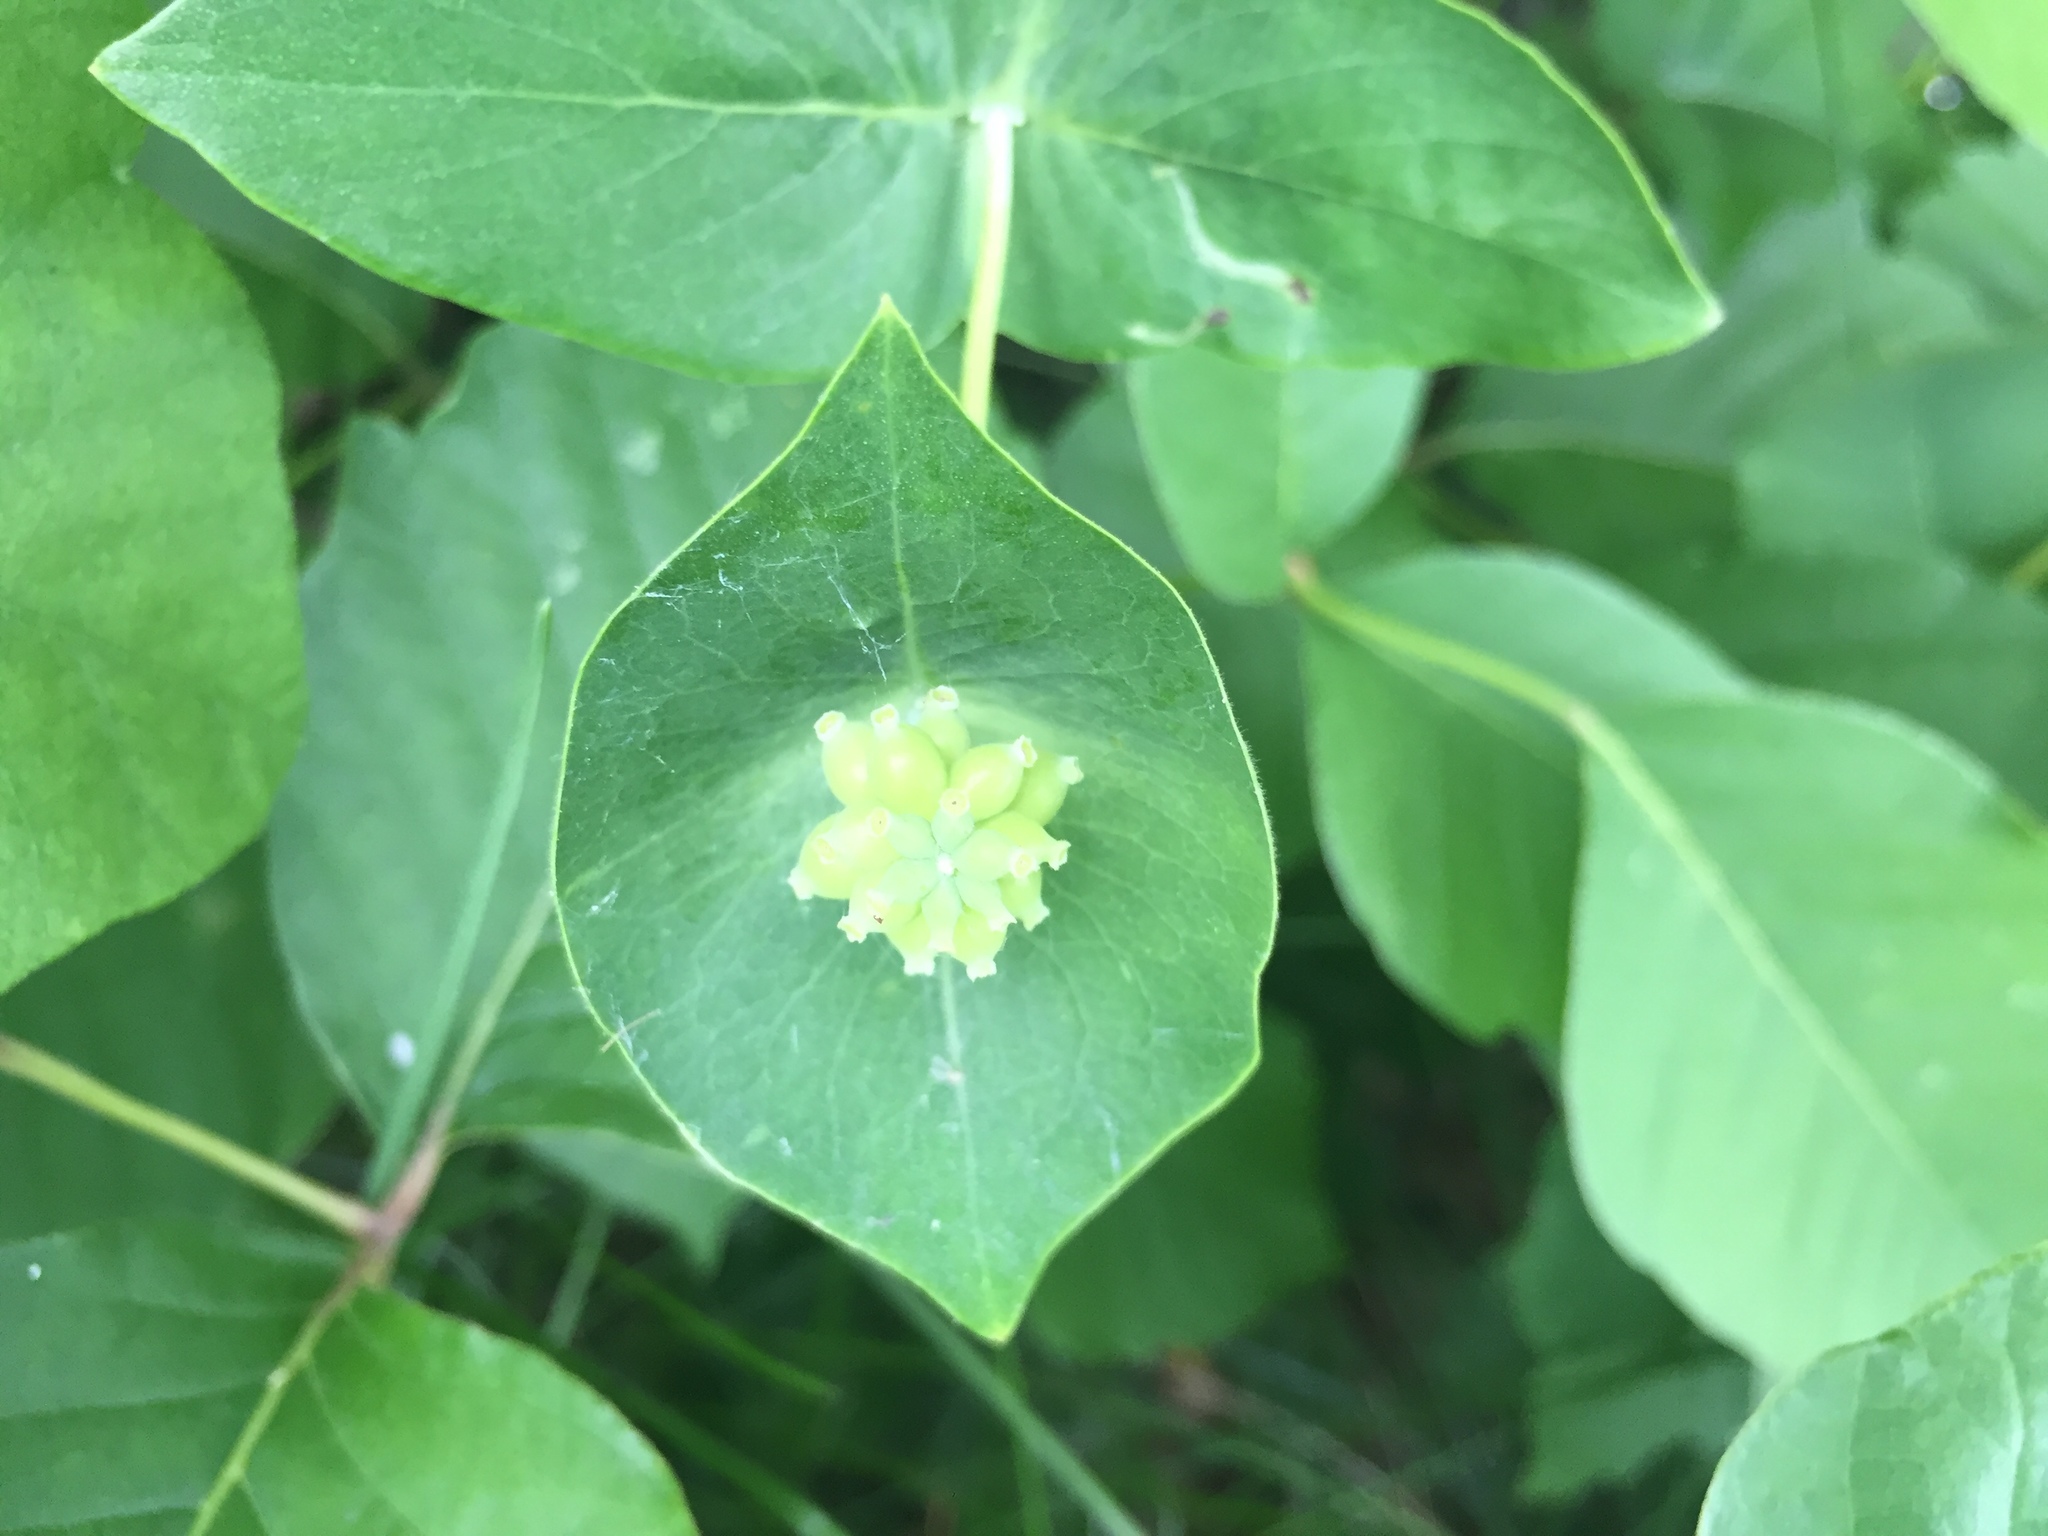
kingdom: Plantae
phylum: Tracheophyta
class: Magnoliopsida
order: Dipsacales
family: Caprifoliaceae
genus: Lonicera
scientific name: Lonicera dioica
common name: Limber honeysuckle
